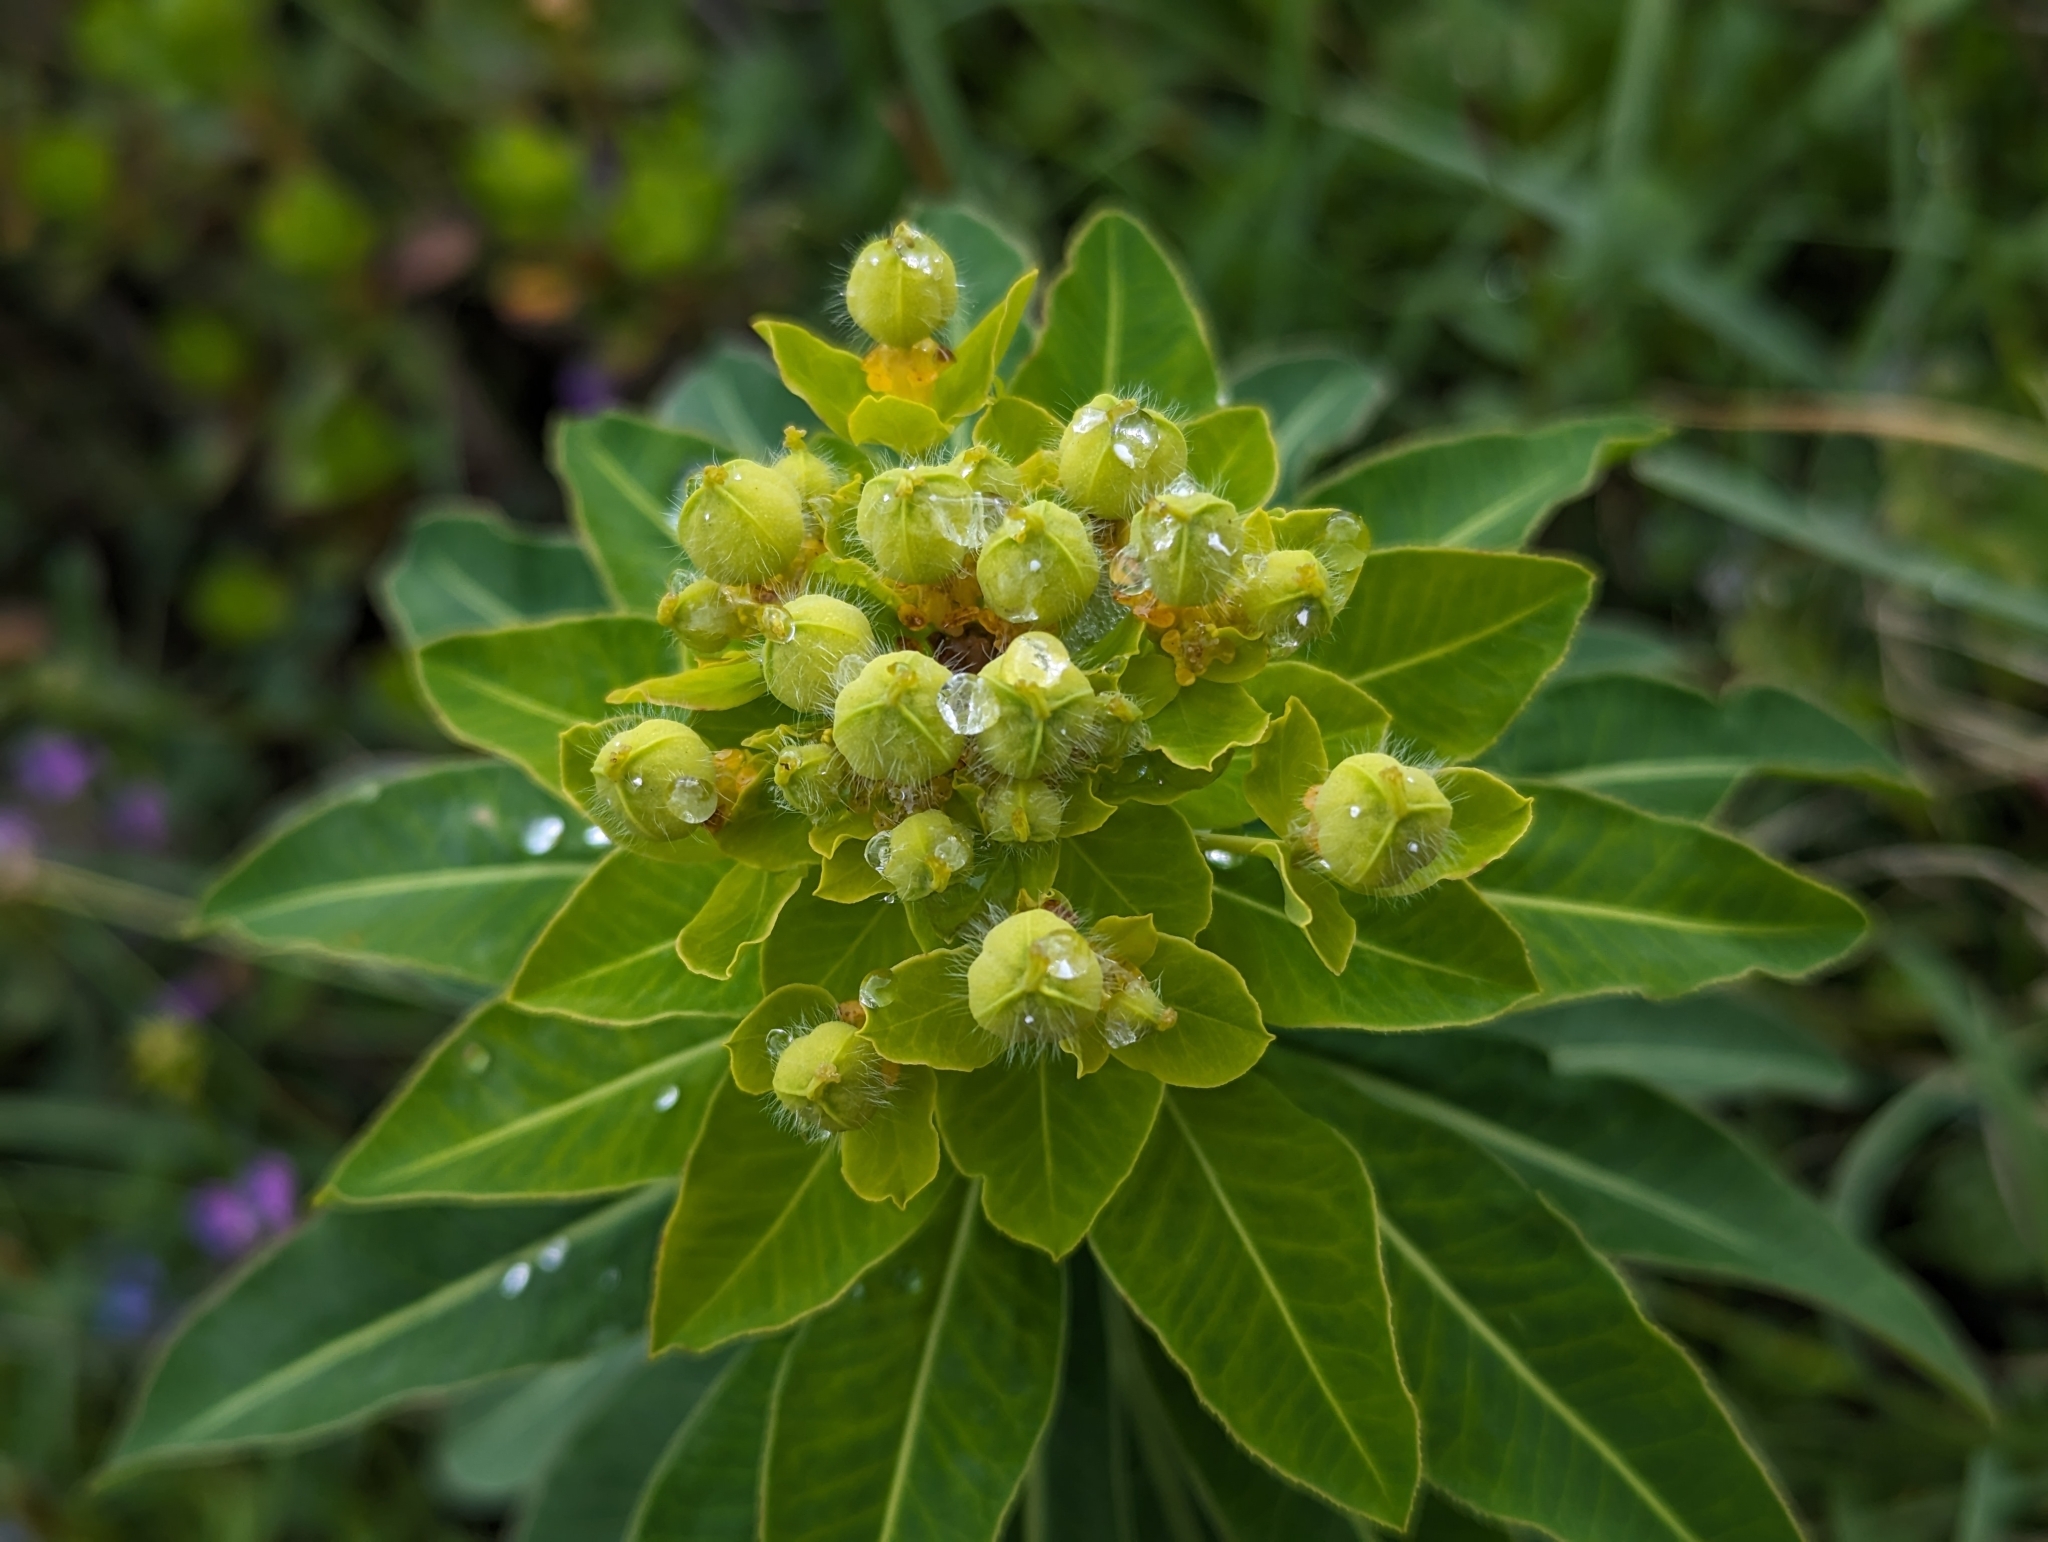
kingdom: Plantae
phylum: Tracheophyta
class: Magnoliopsida
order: Malpighiales
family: Euphorbiaceae
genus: Euphorbia
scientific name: Euphorbia austriaca
